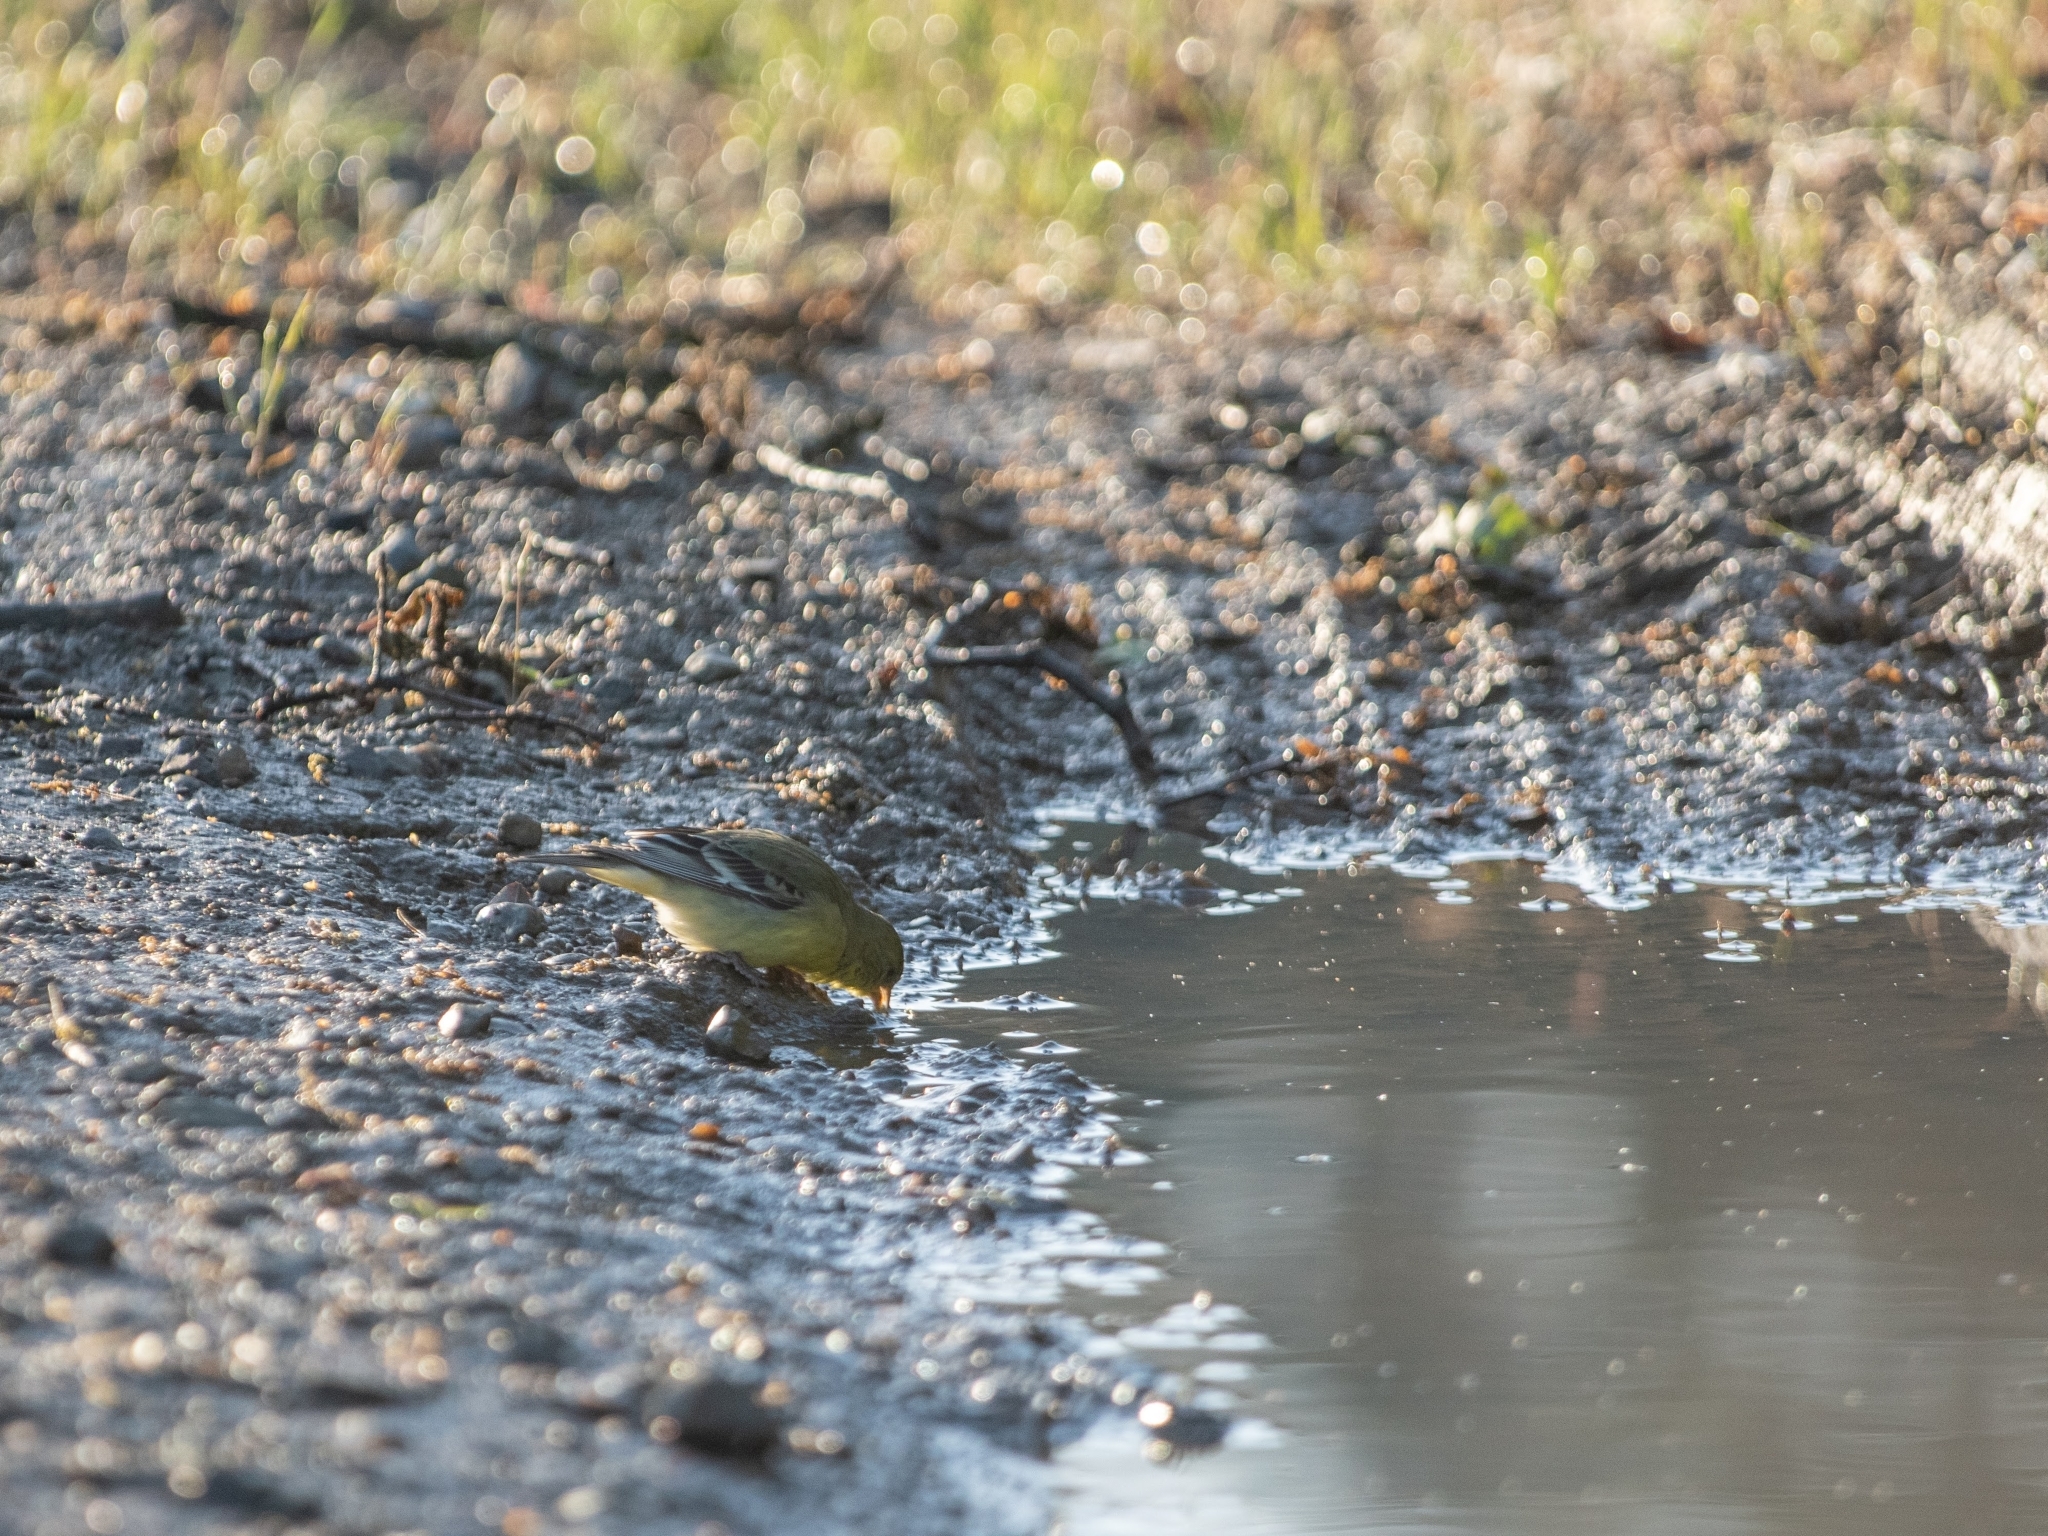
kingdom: Animalia
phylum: Chordata
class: Aves
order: Passeriformes
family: Fringillidae
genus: Spinus
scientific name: Spinus psaltria
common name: Lesser goldfinch
